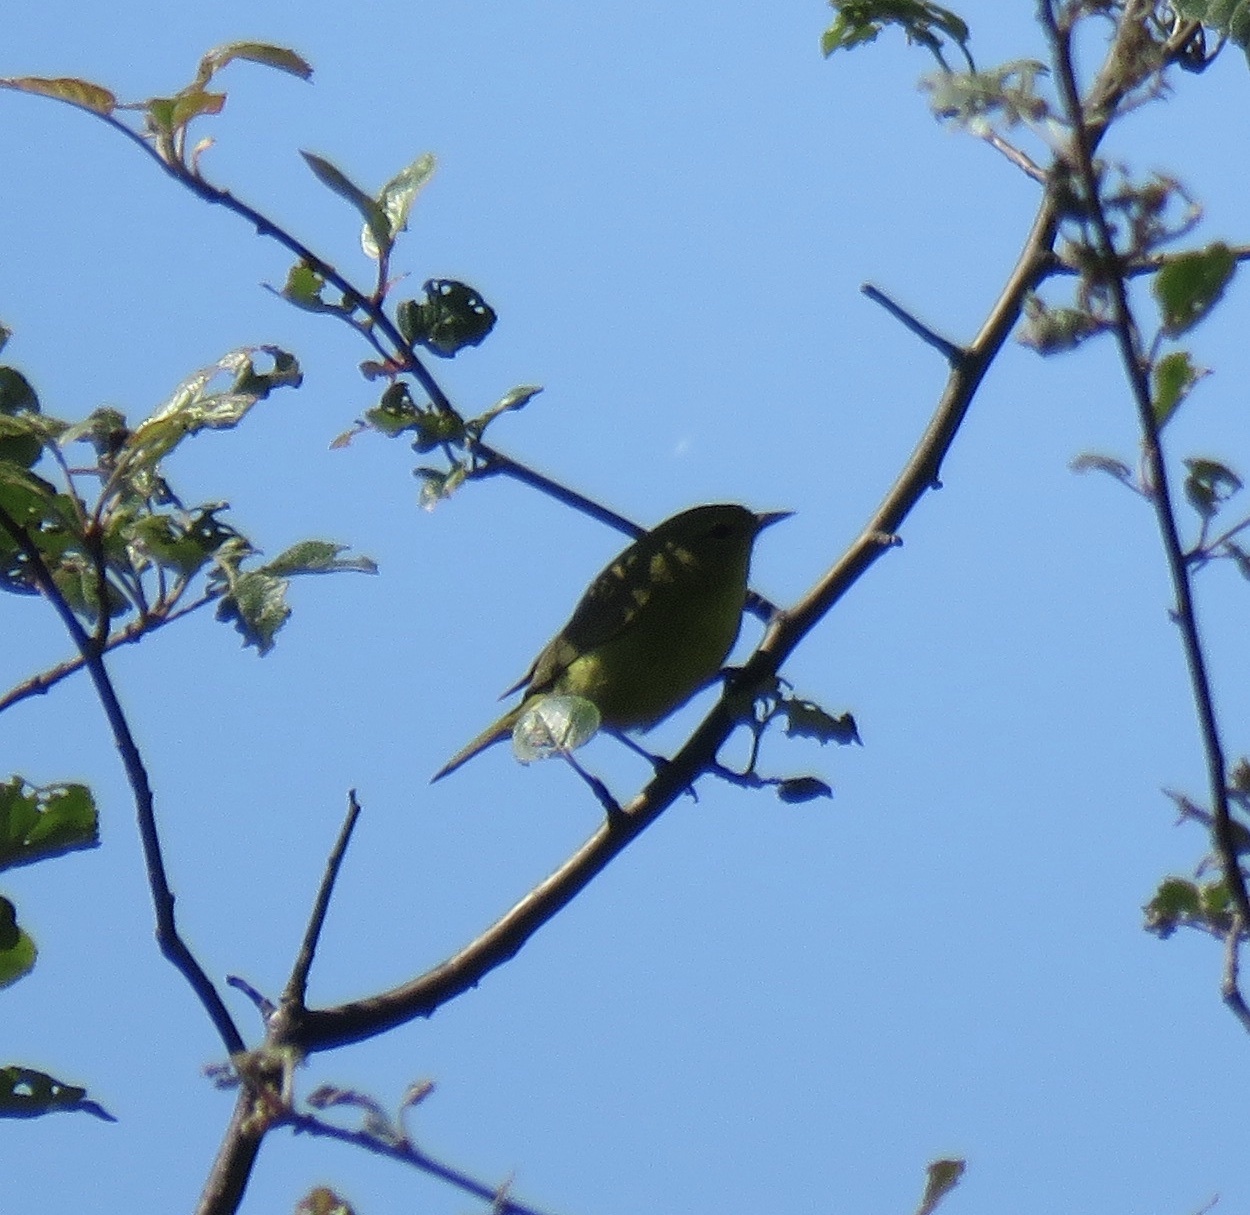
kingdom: Animalia
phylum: Chordata
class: Aves
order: Passeriformes
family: Parulidae
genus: Leiothlypis
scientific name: Leiothlypis celata
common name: Orange-crowned warbler
